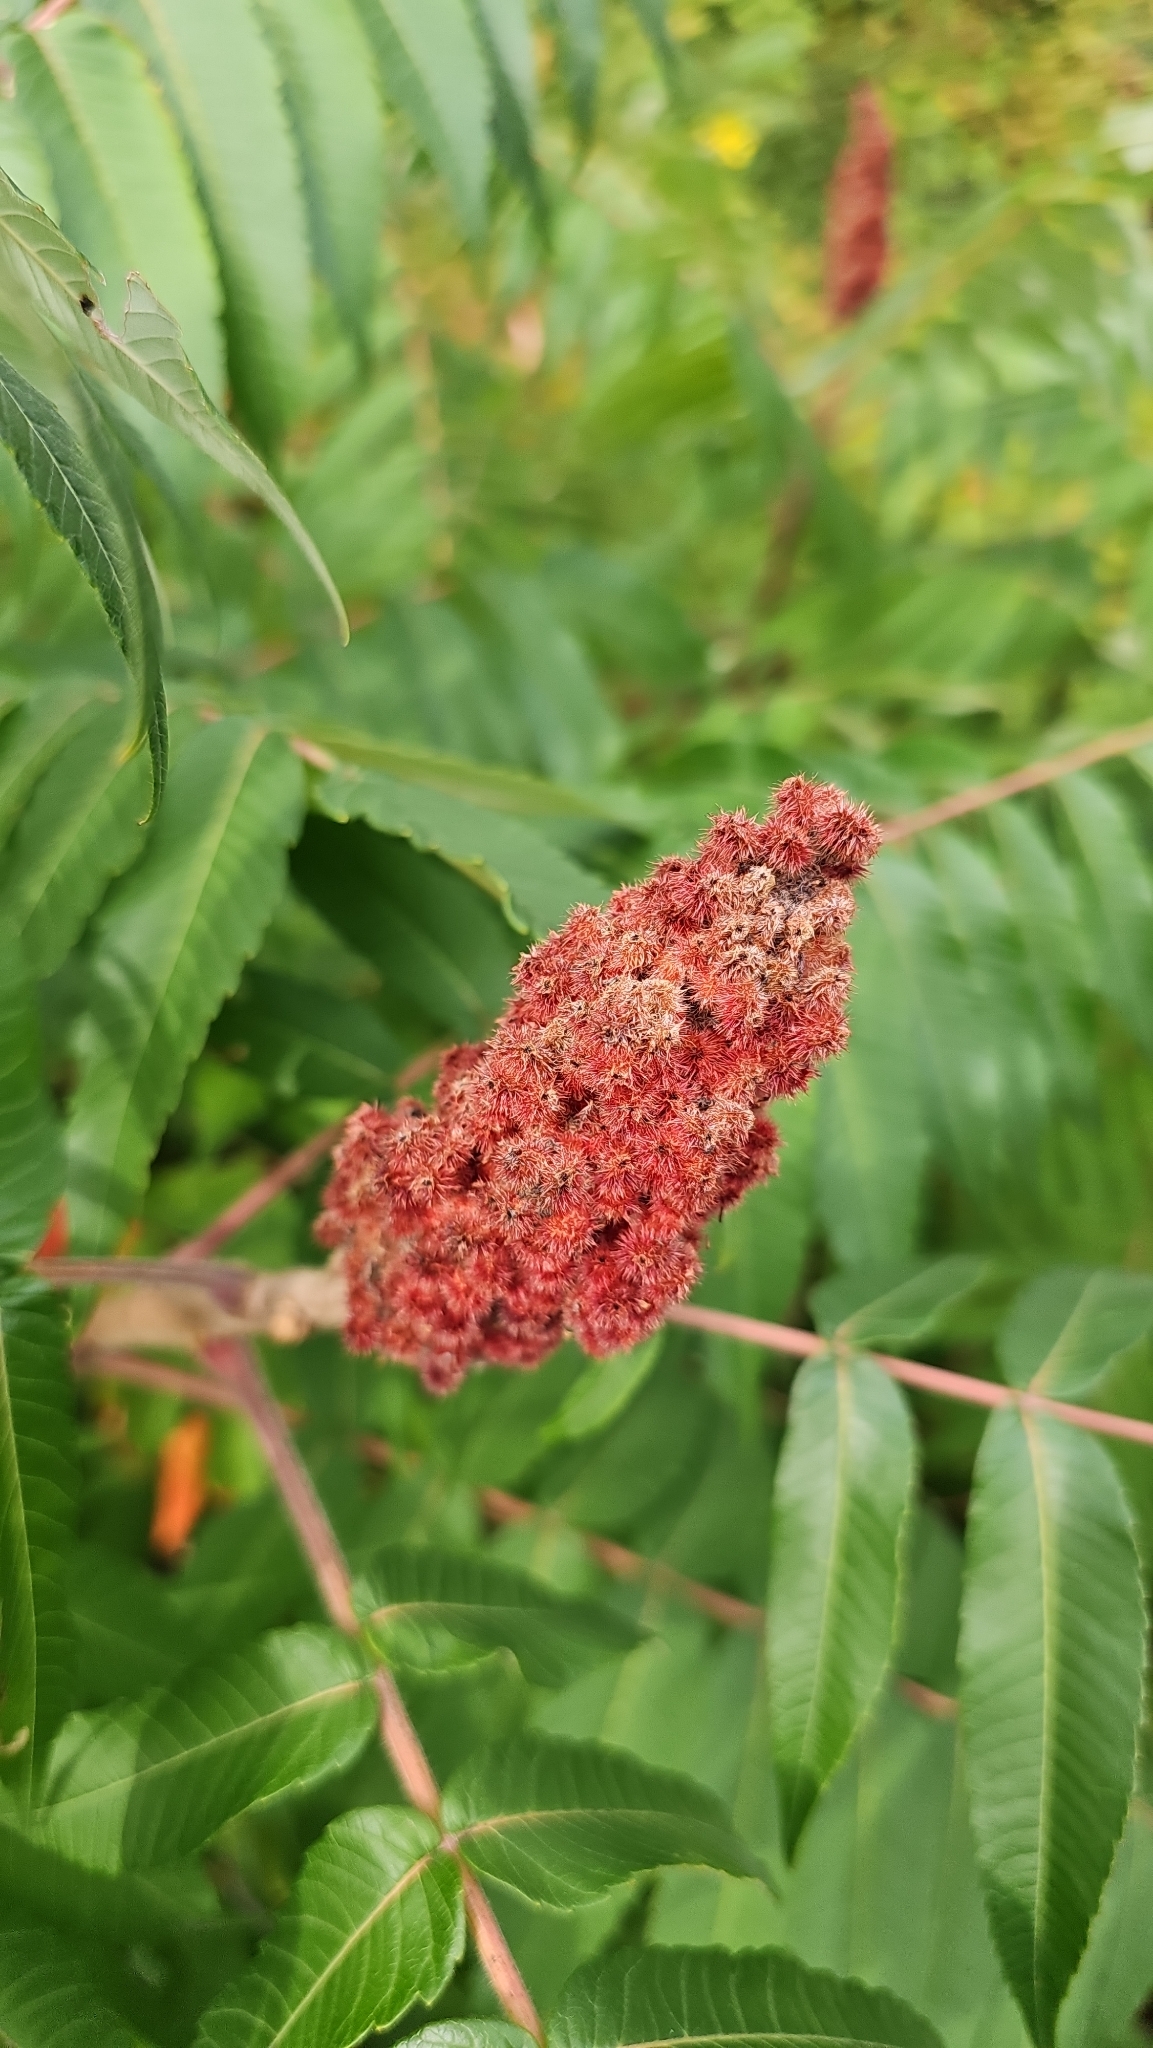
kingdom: Plantae
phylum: Tracheophyta
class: Magnoliopsida
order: Sapindales
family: Anacardiaceae
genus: Rhus
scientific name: Rhus typhina
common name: Staghorn sumac
